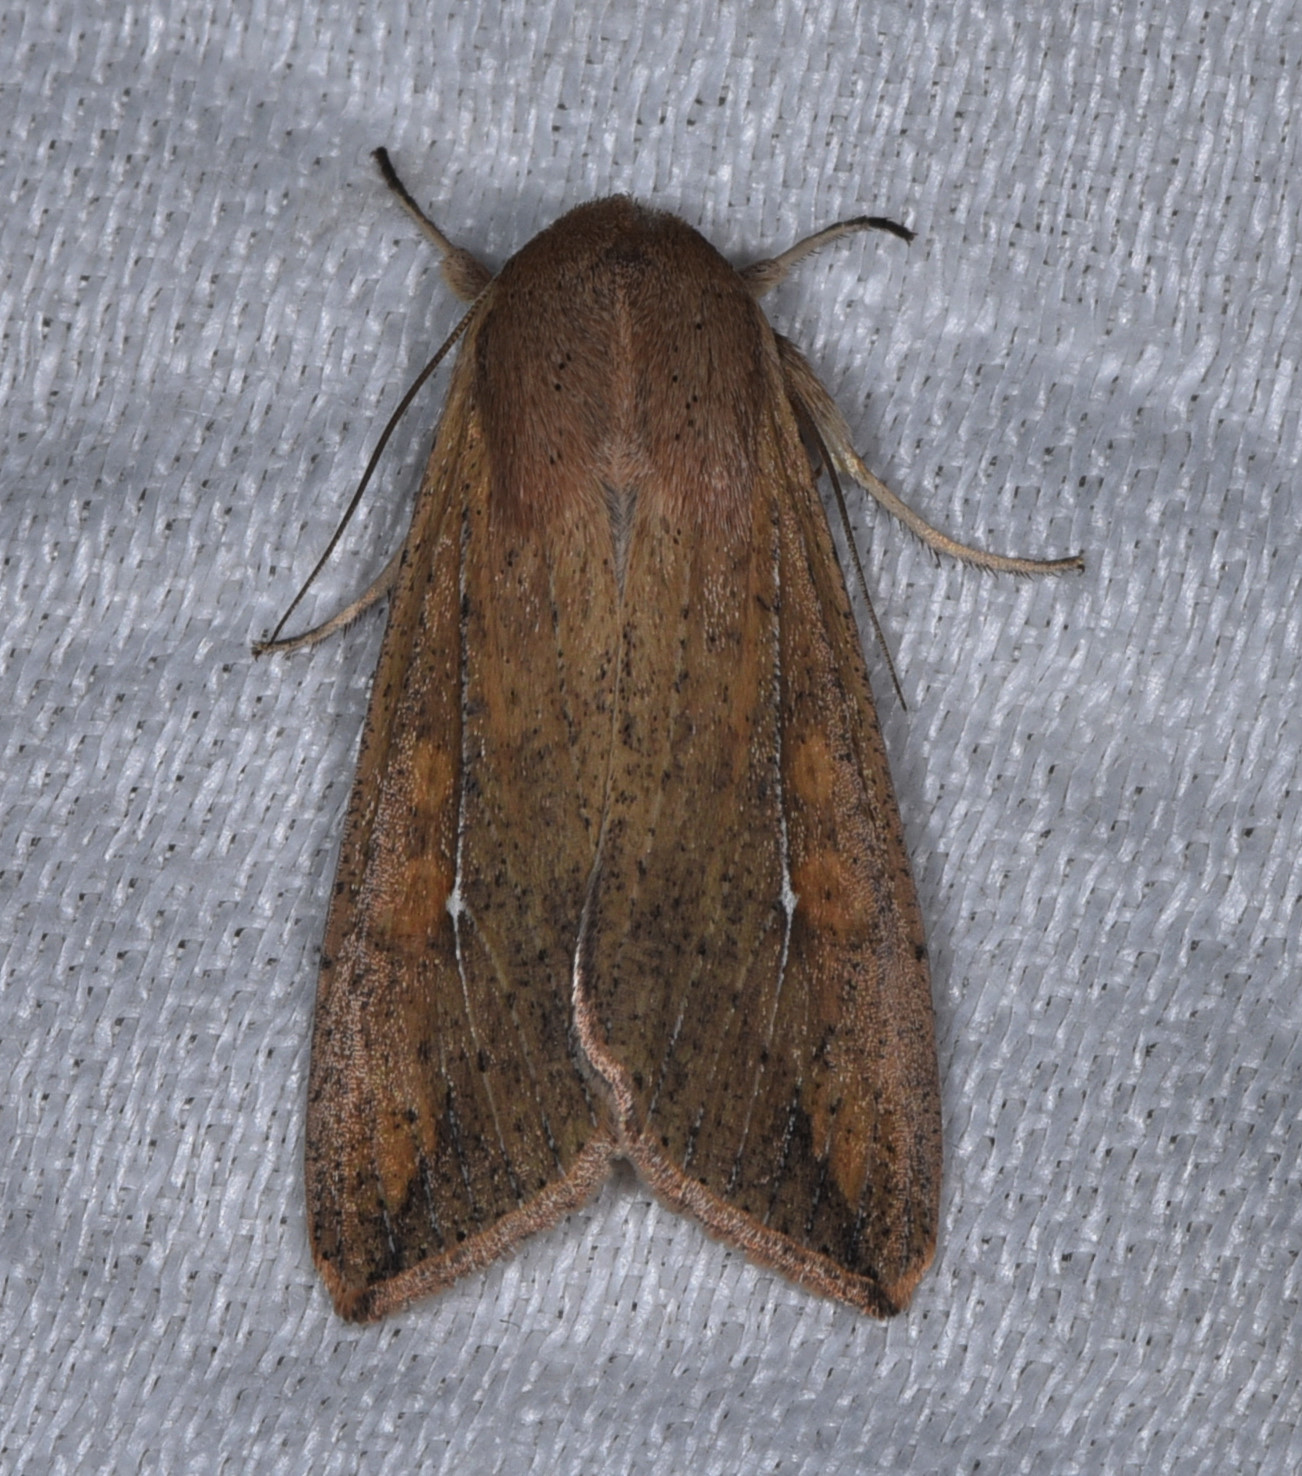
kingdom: Animalia
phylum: Arthropoda
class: Insecta
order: Lepidoptera
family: Noctuidae
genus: Mythimna
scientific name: Mythimna unipuncta
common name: White-speck
